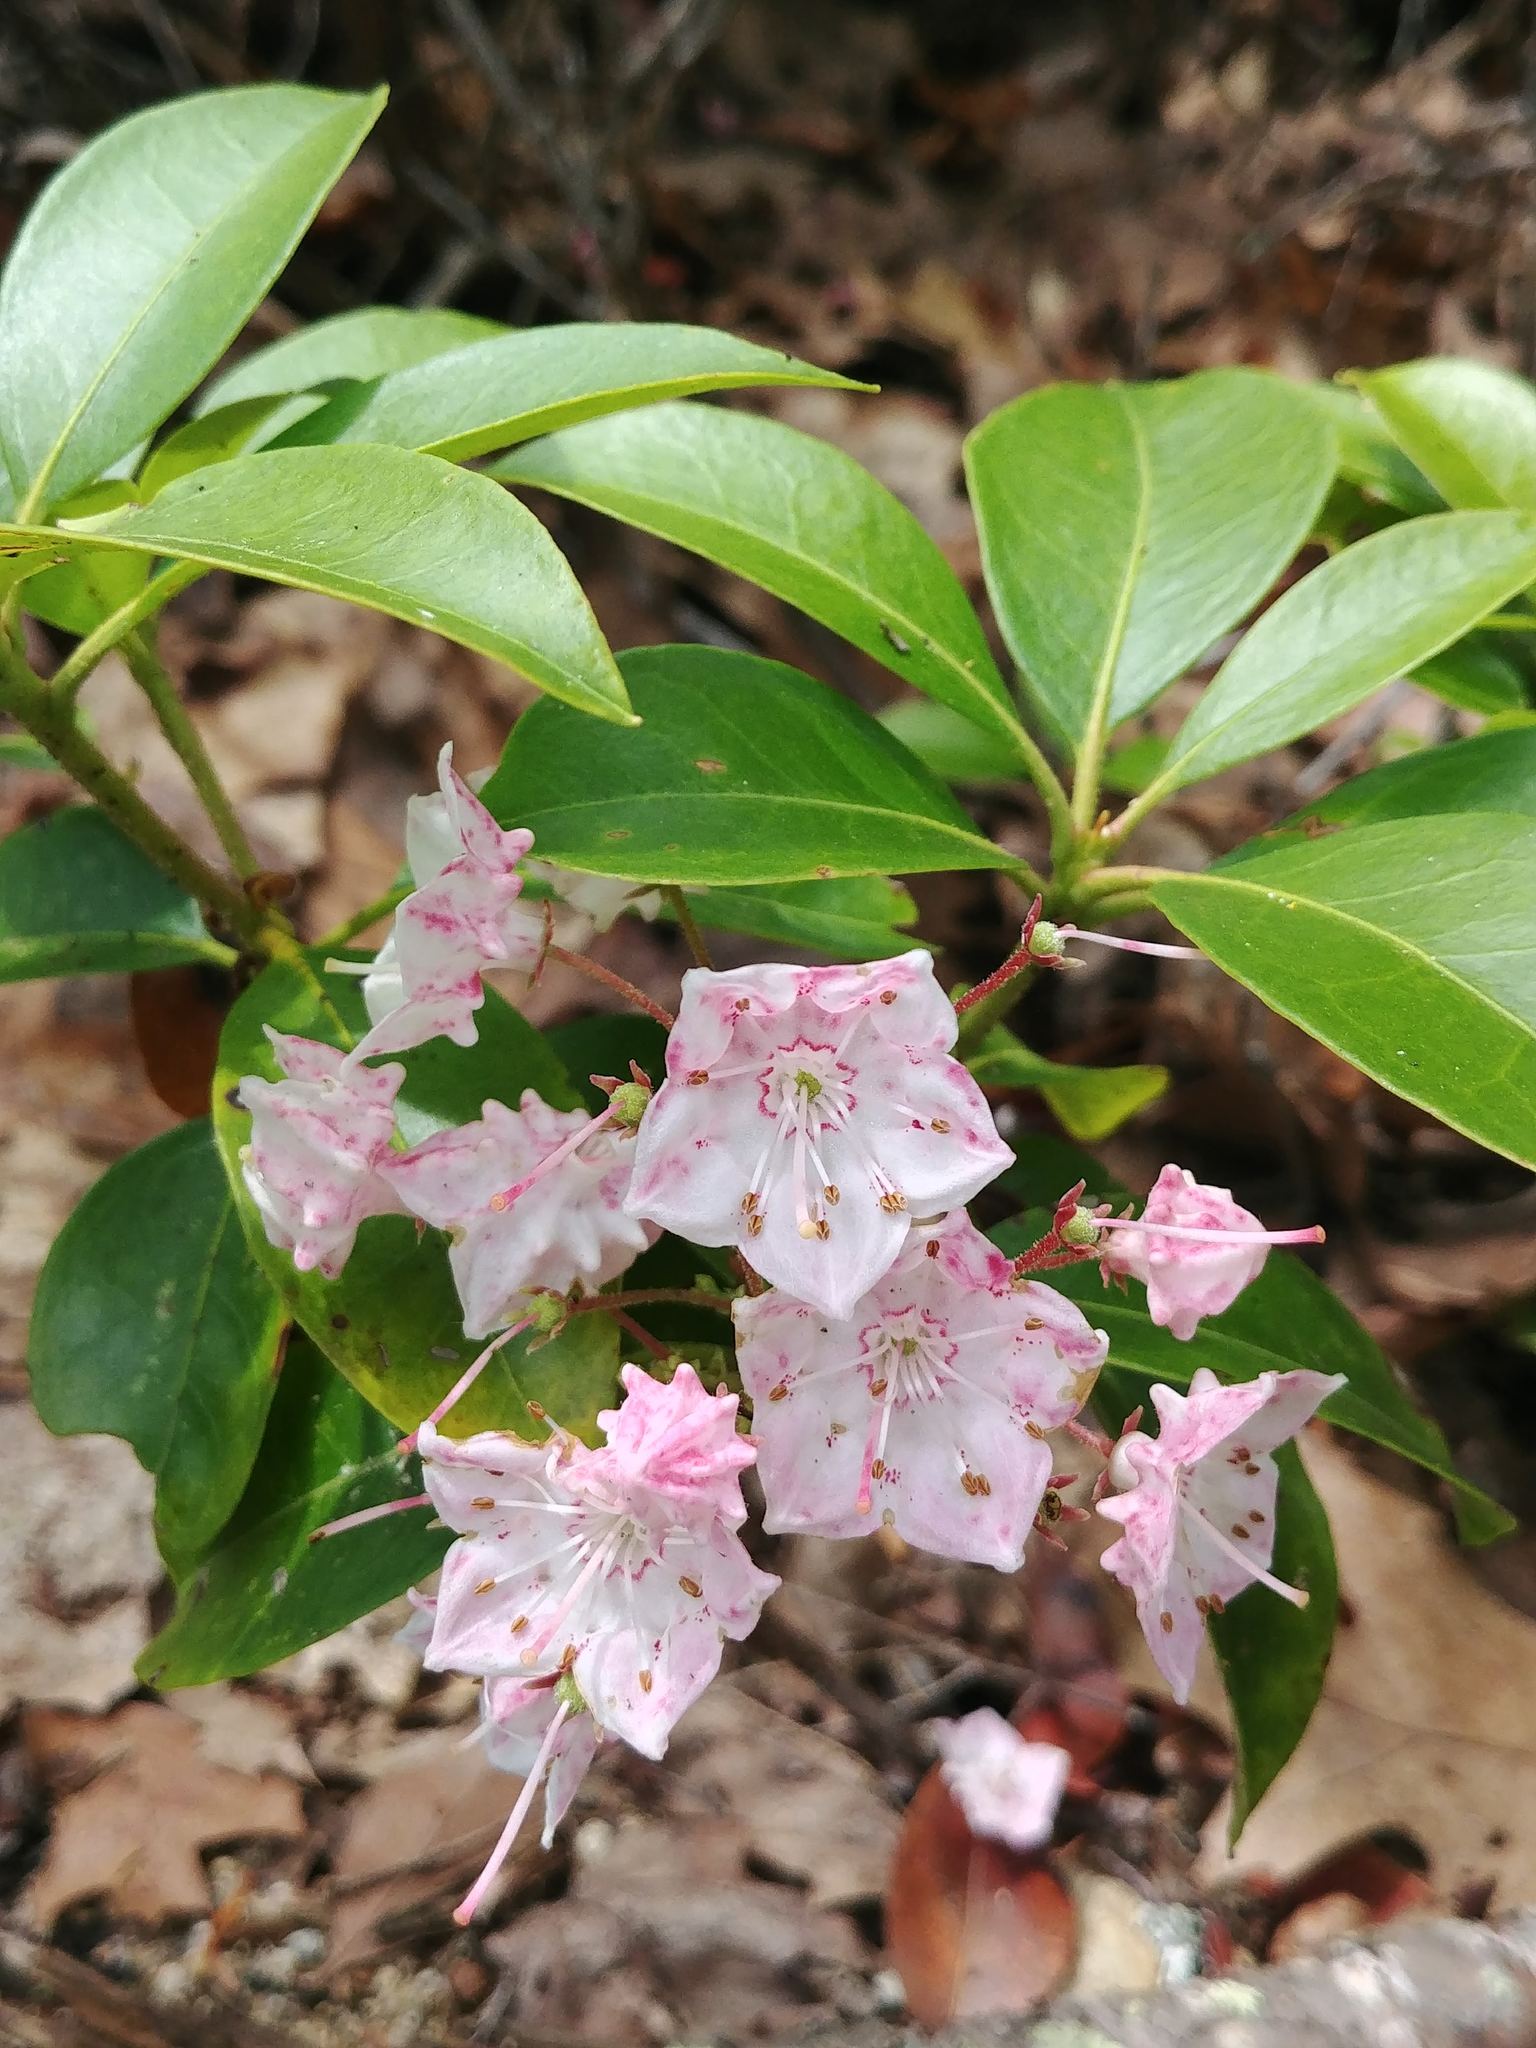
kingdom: Plantae
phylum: Tracheophyta
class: Magnoliopsida
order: Ericales
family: Ericaceae
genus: Kalmia
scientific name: Kalmia latifolia
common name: Mountain-laurel
